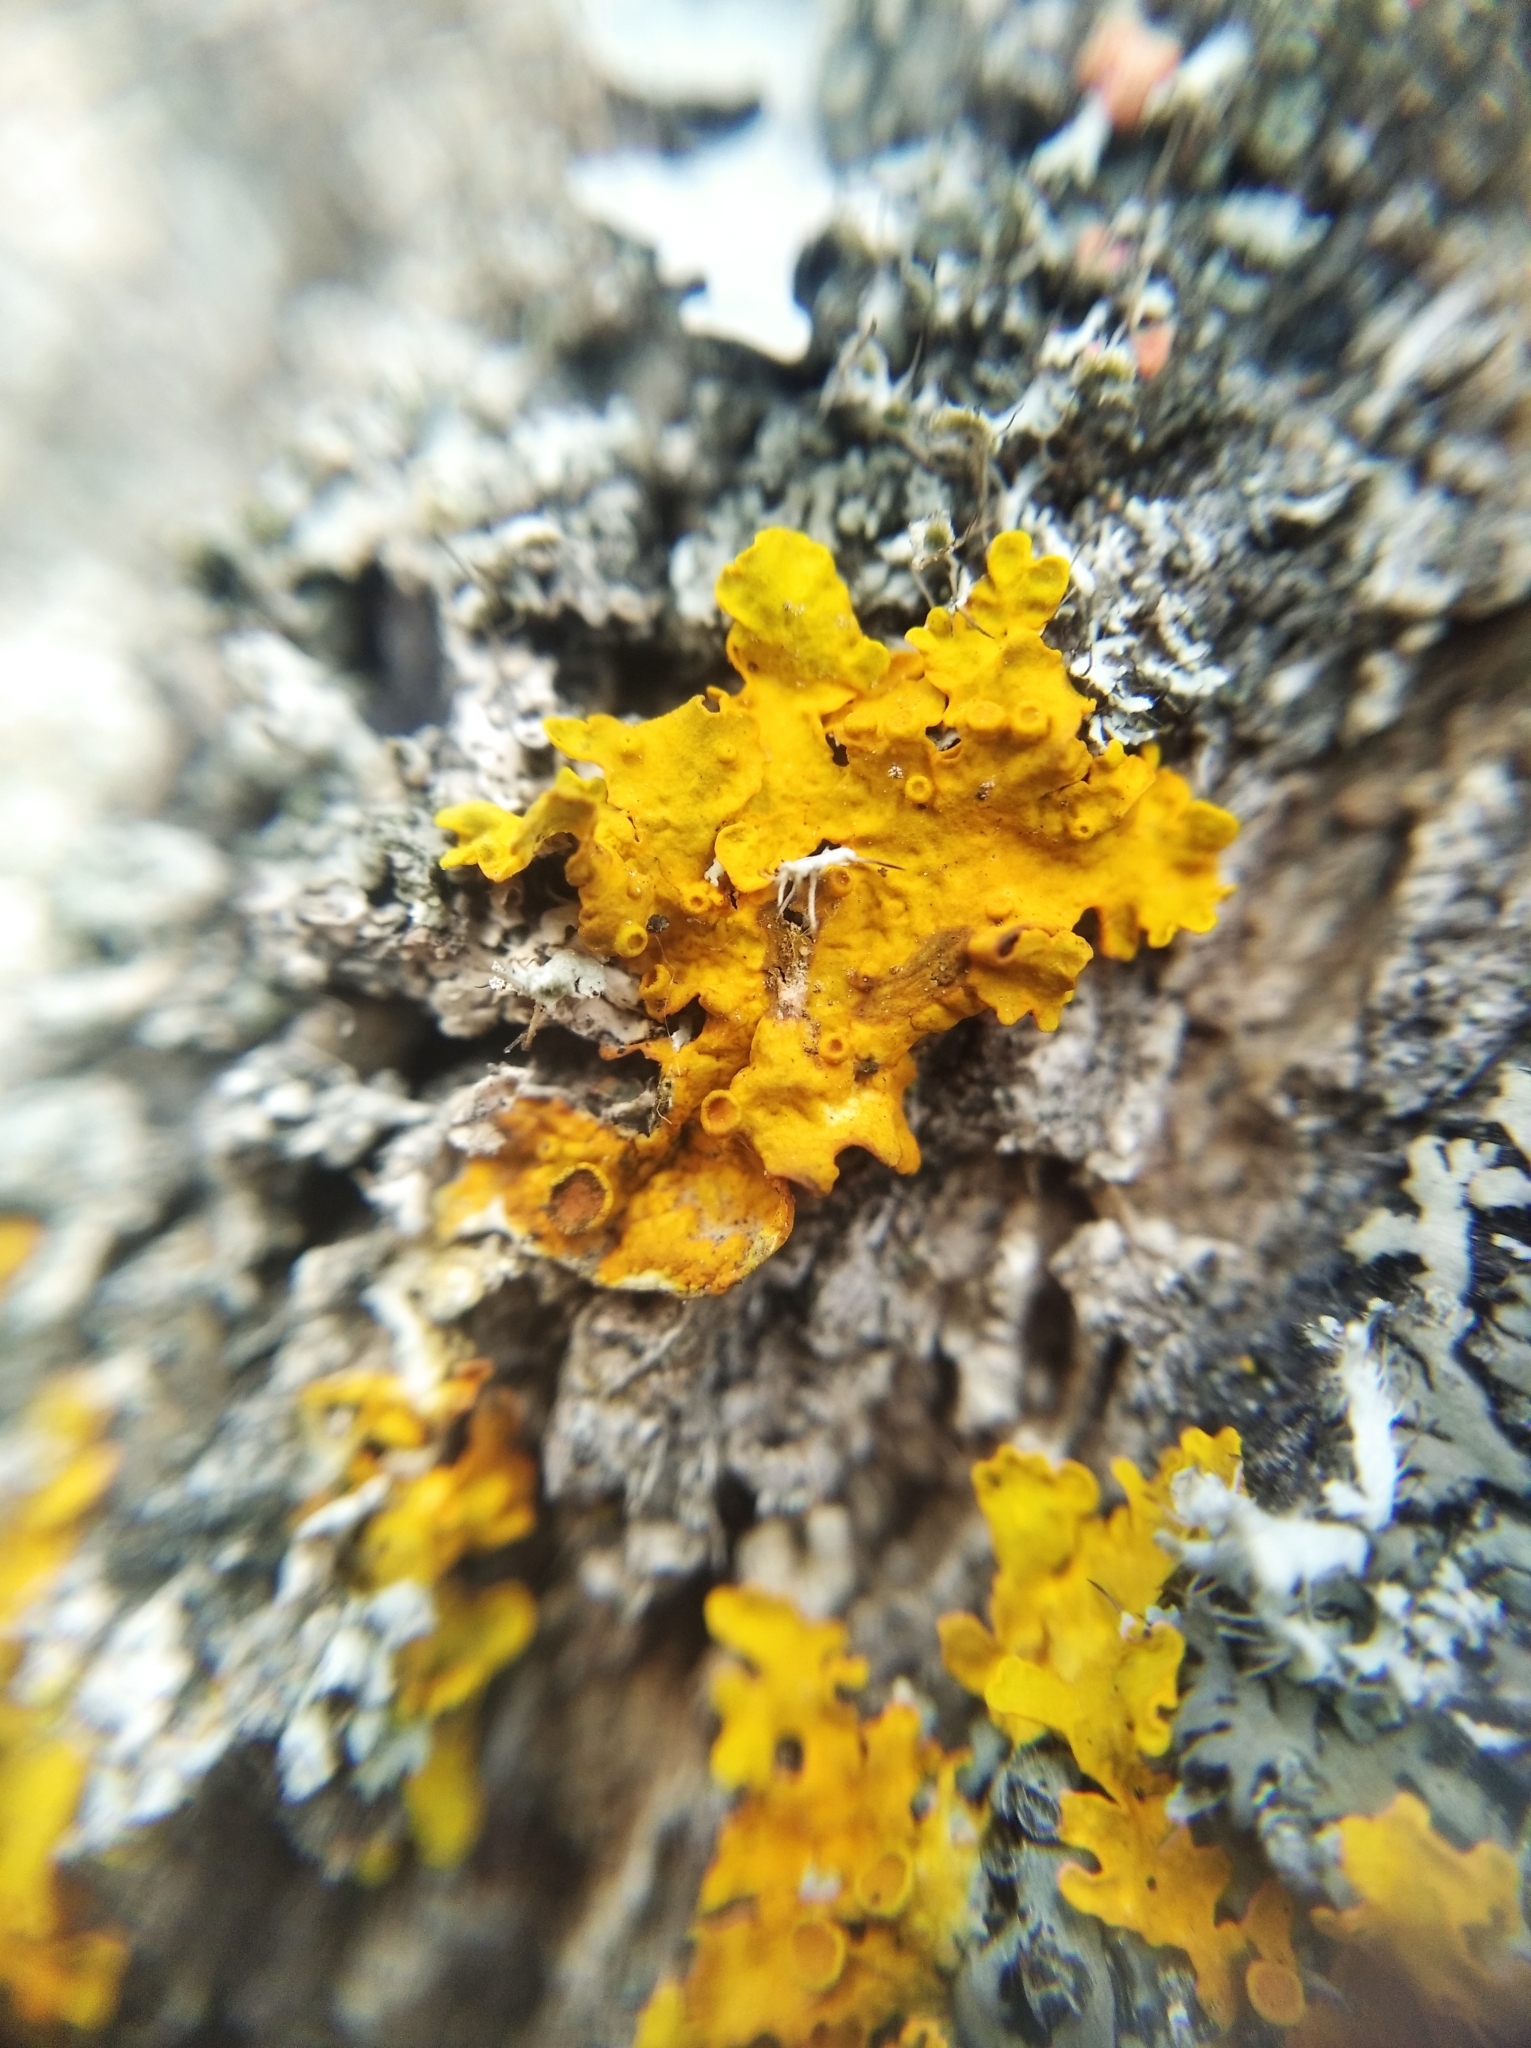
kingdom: Fungi
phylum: Ascomycota
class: Lecanoromycetes
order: Teloschistales
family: Teloschistaceae
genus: Xanthoria
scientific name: Xanthoria parietina
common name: Common orange lichen
